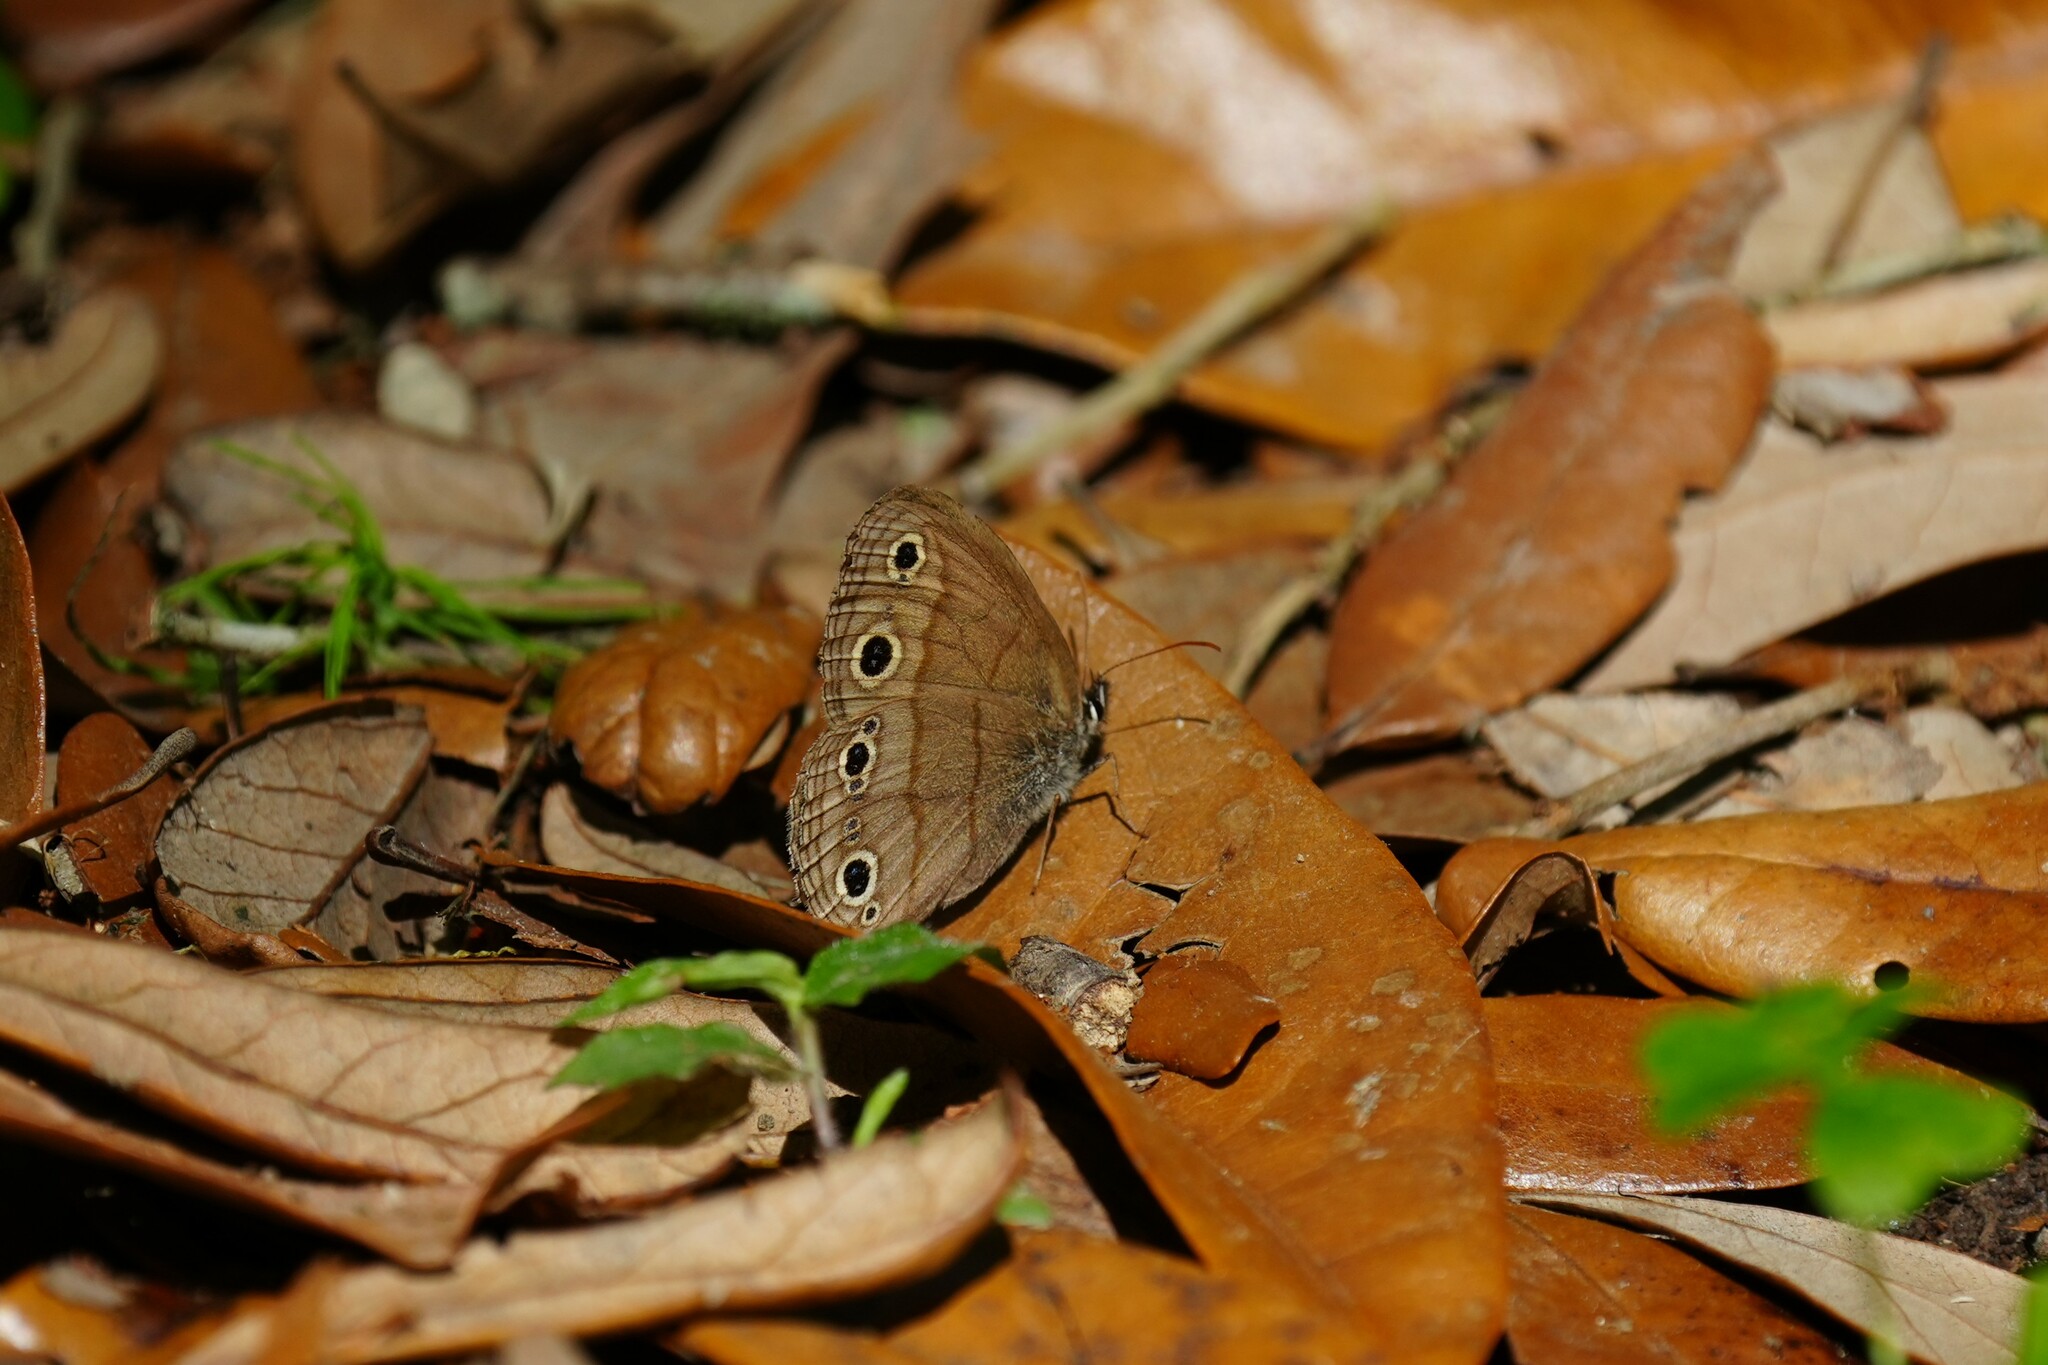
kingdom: Animalia
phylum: Arthropoda
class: Insecta
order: Lepidoptera
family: Nymphalidae
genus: Euptychia
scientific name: Euptychia cymela
